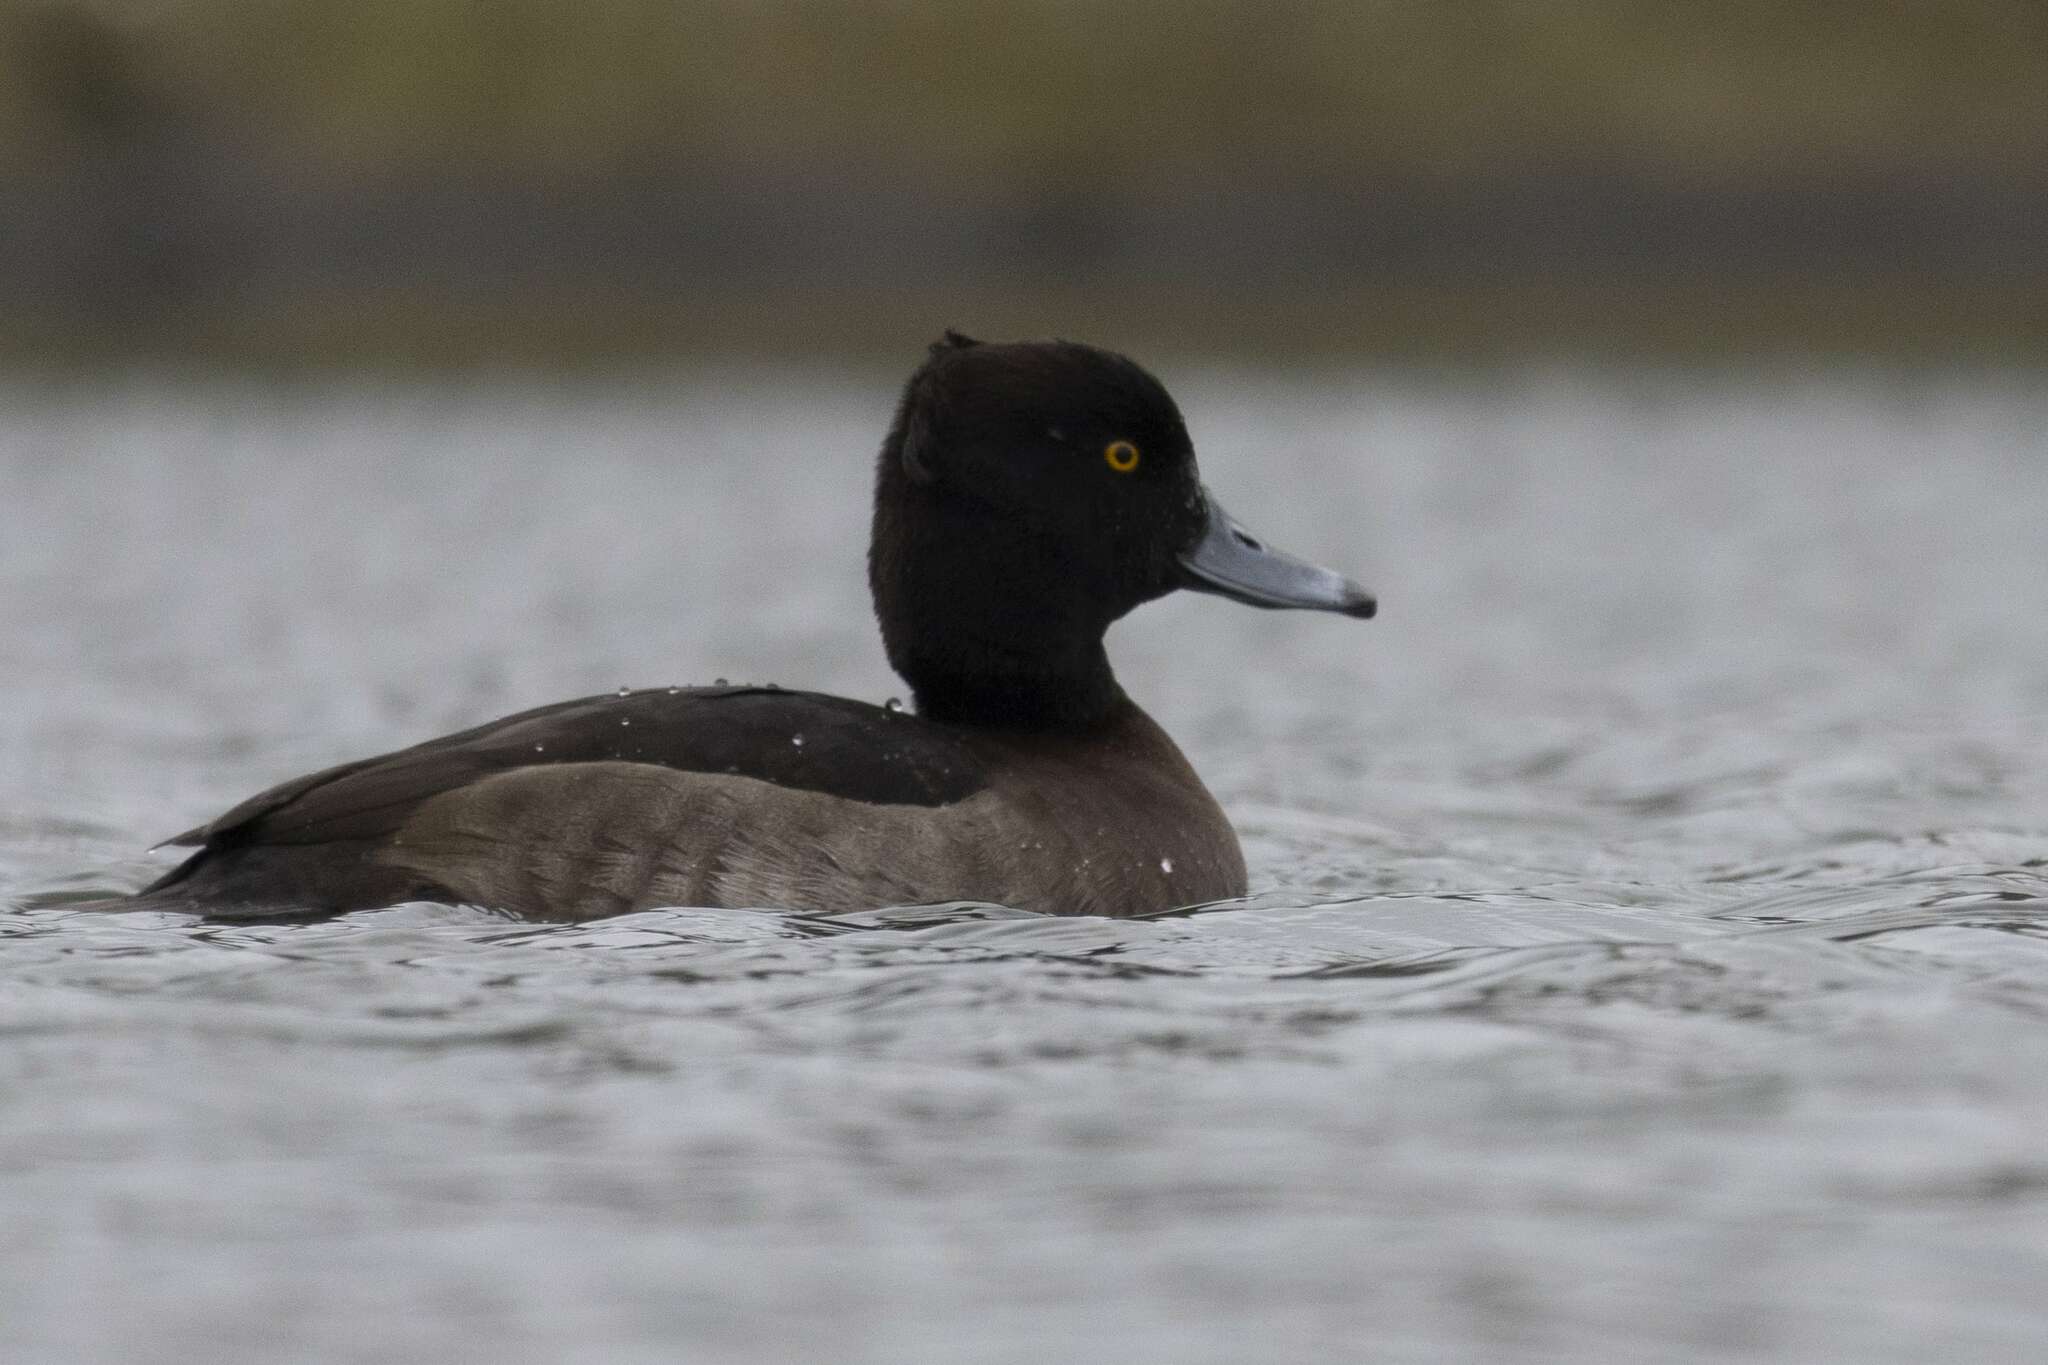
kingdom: Animalia
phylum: Chordata
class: Aves
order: Anseriformes
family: Anatidae
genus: Aythya
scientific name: Aythya fuligula
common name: Tufted duck
